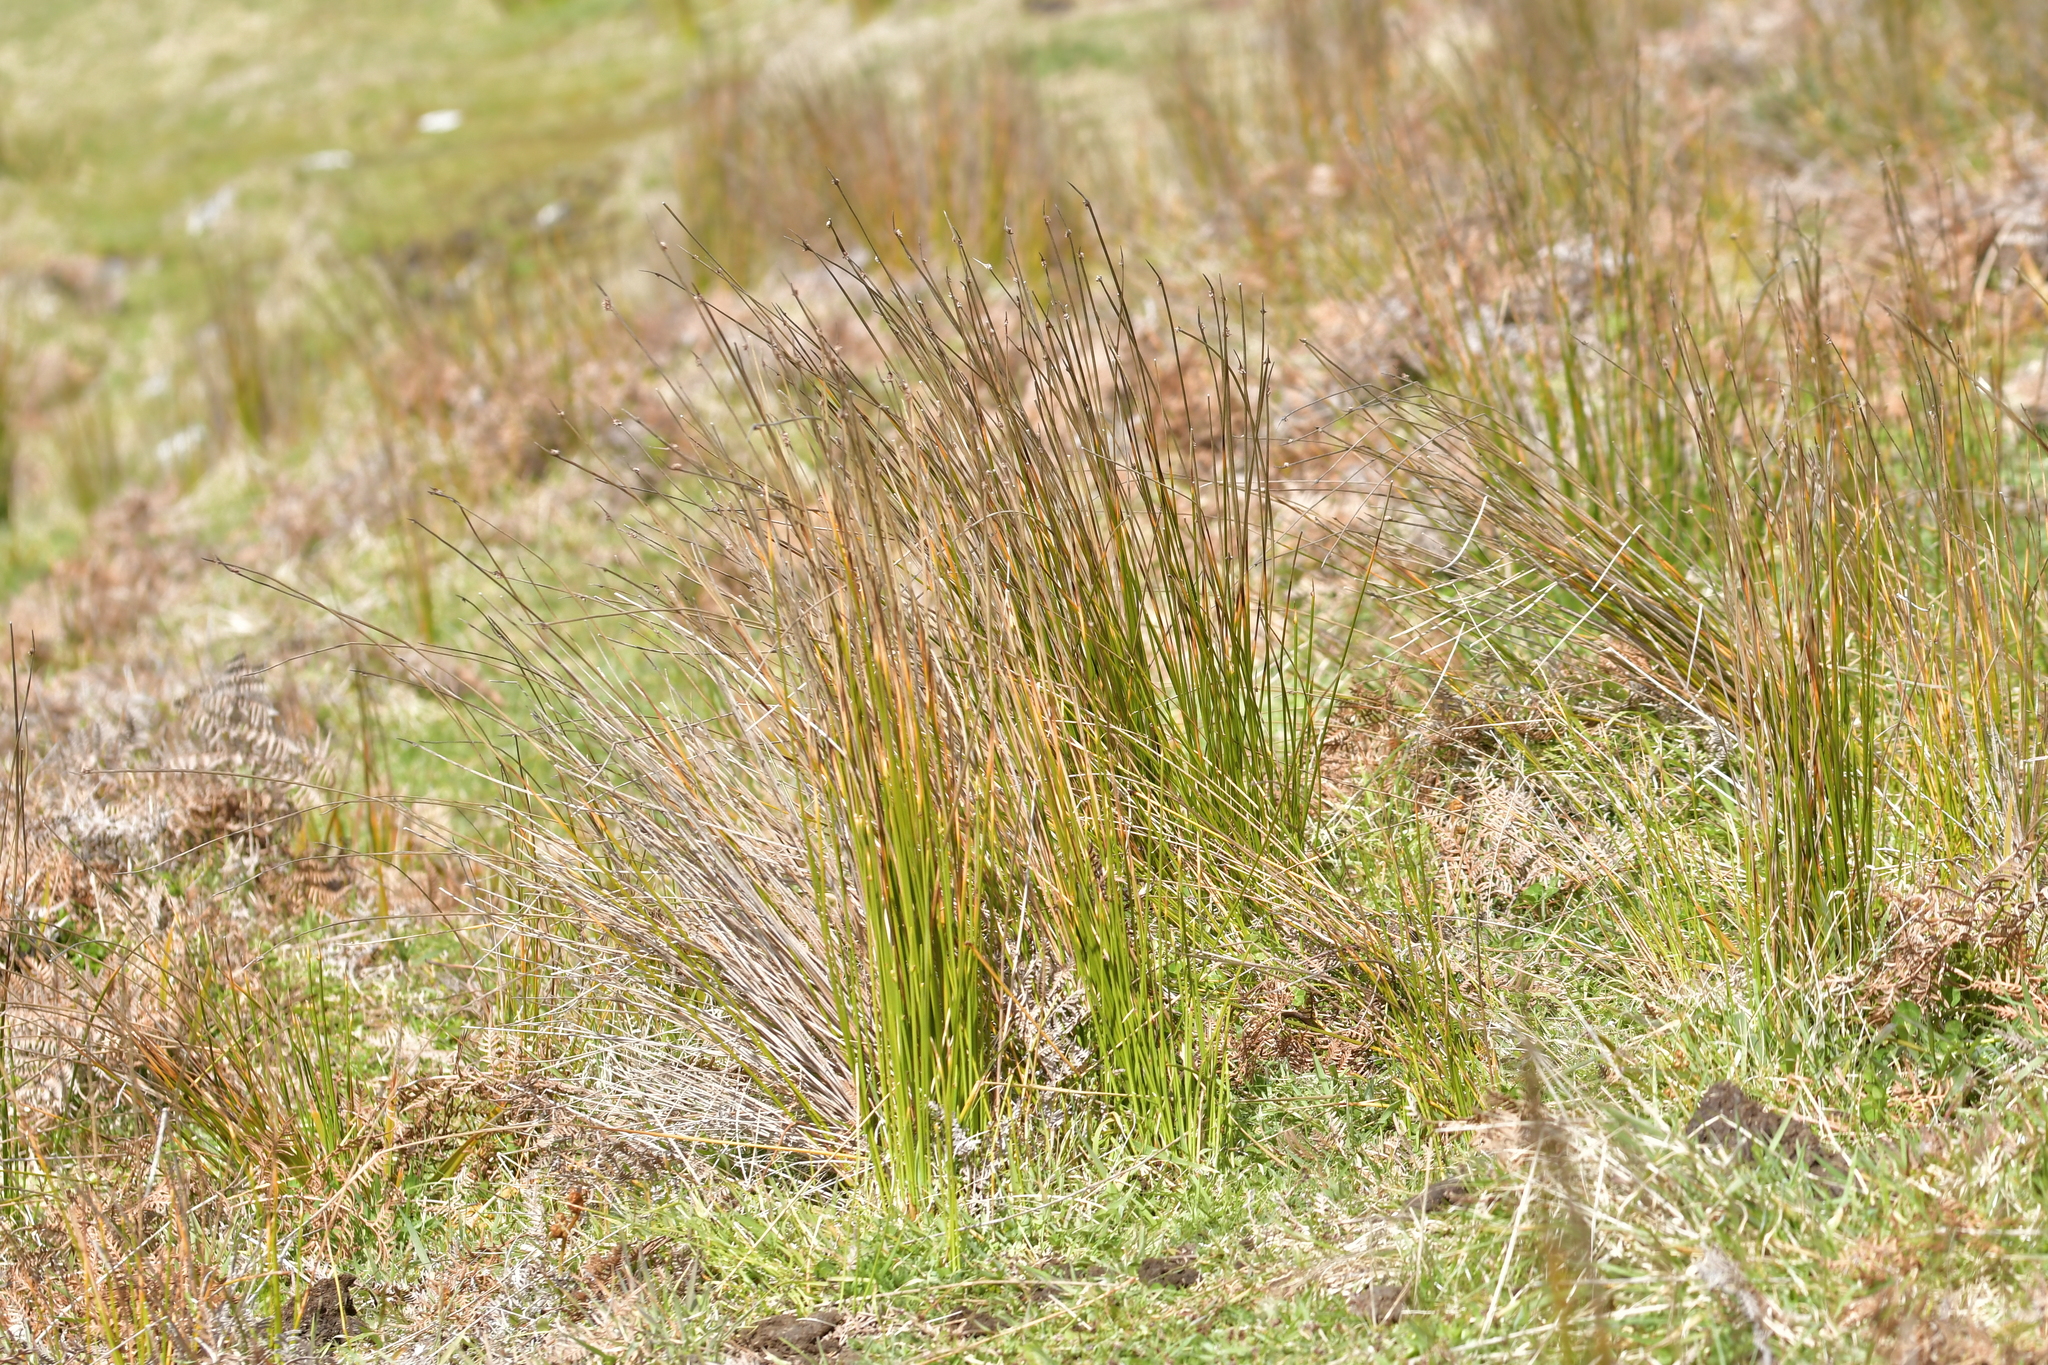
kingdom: Plantae
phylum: Tracheophyta
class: Liliopsida
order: Poales
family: Cyperaceae
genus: Ficinia
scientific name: Ficinia nodosa
